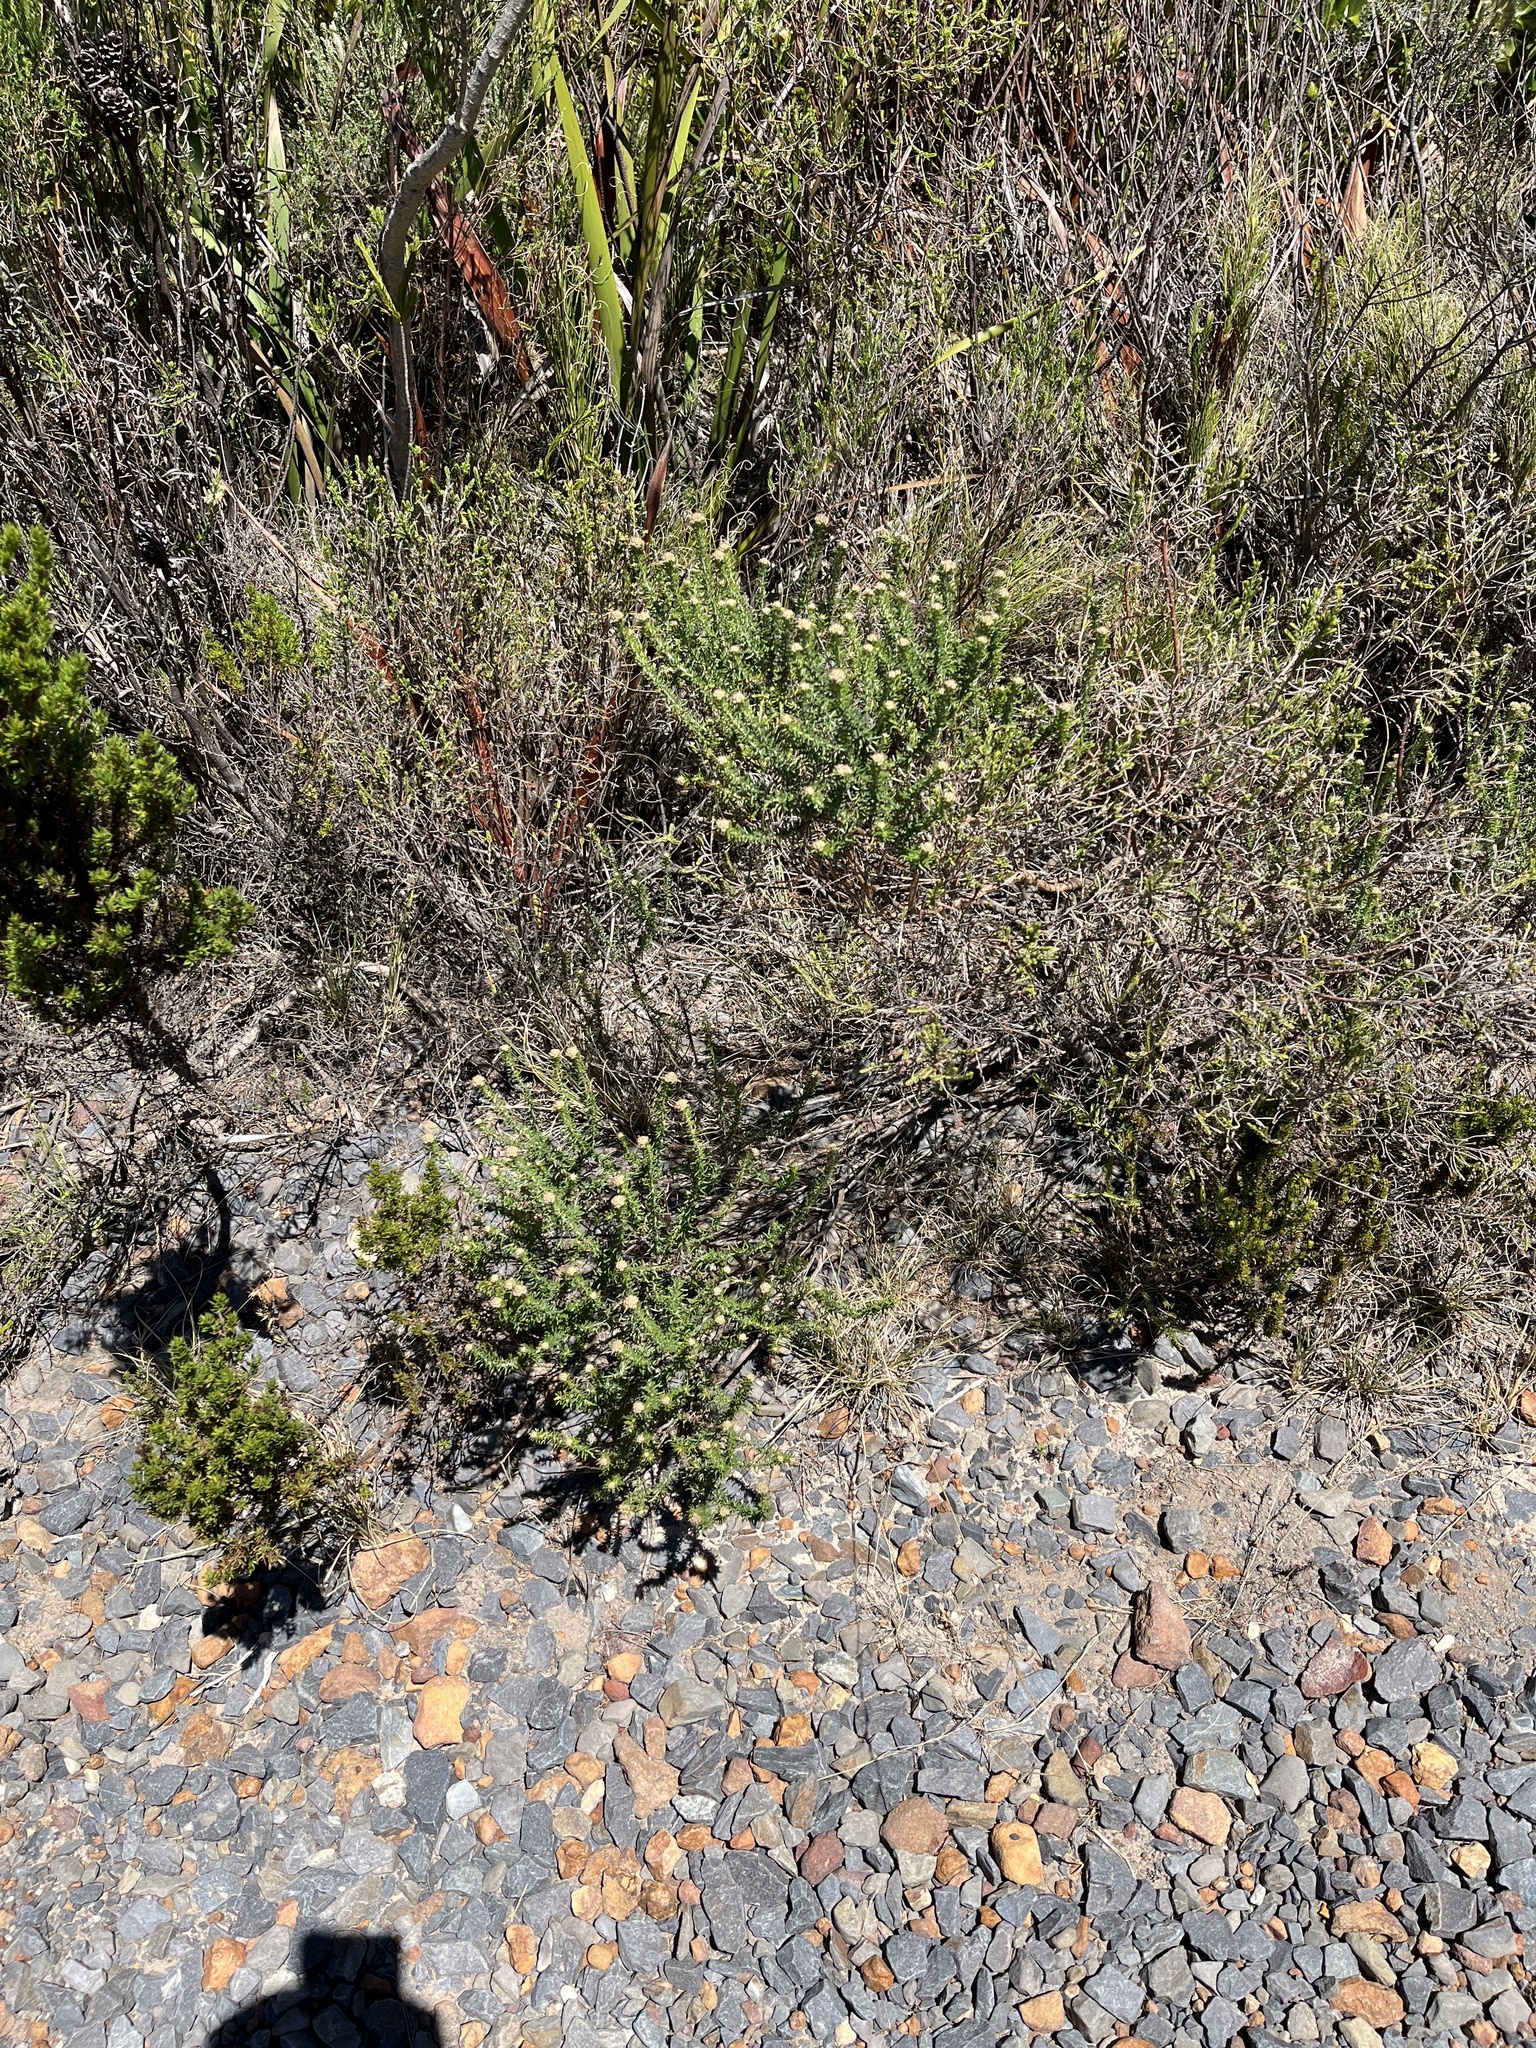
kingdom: Plantae
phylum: Tracheophyta
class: Magnoliopsida
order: Asterales
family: Asteraceae
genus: Metalasia
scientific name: Metalasia muricata
